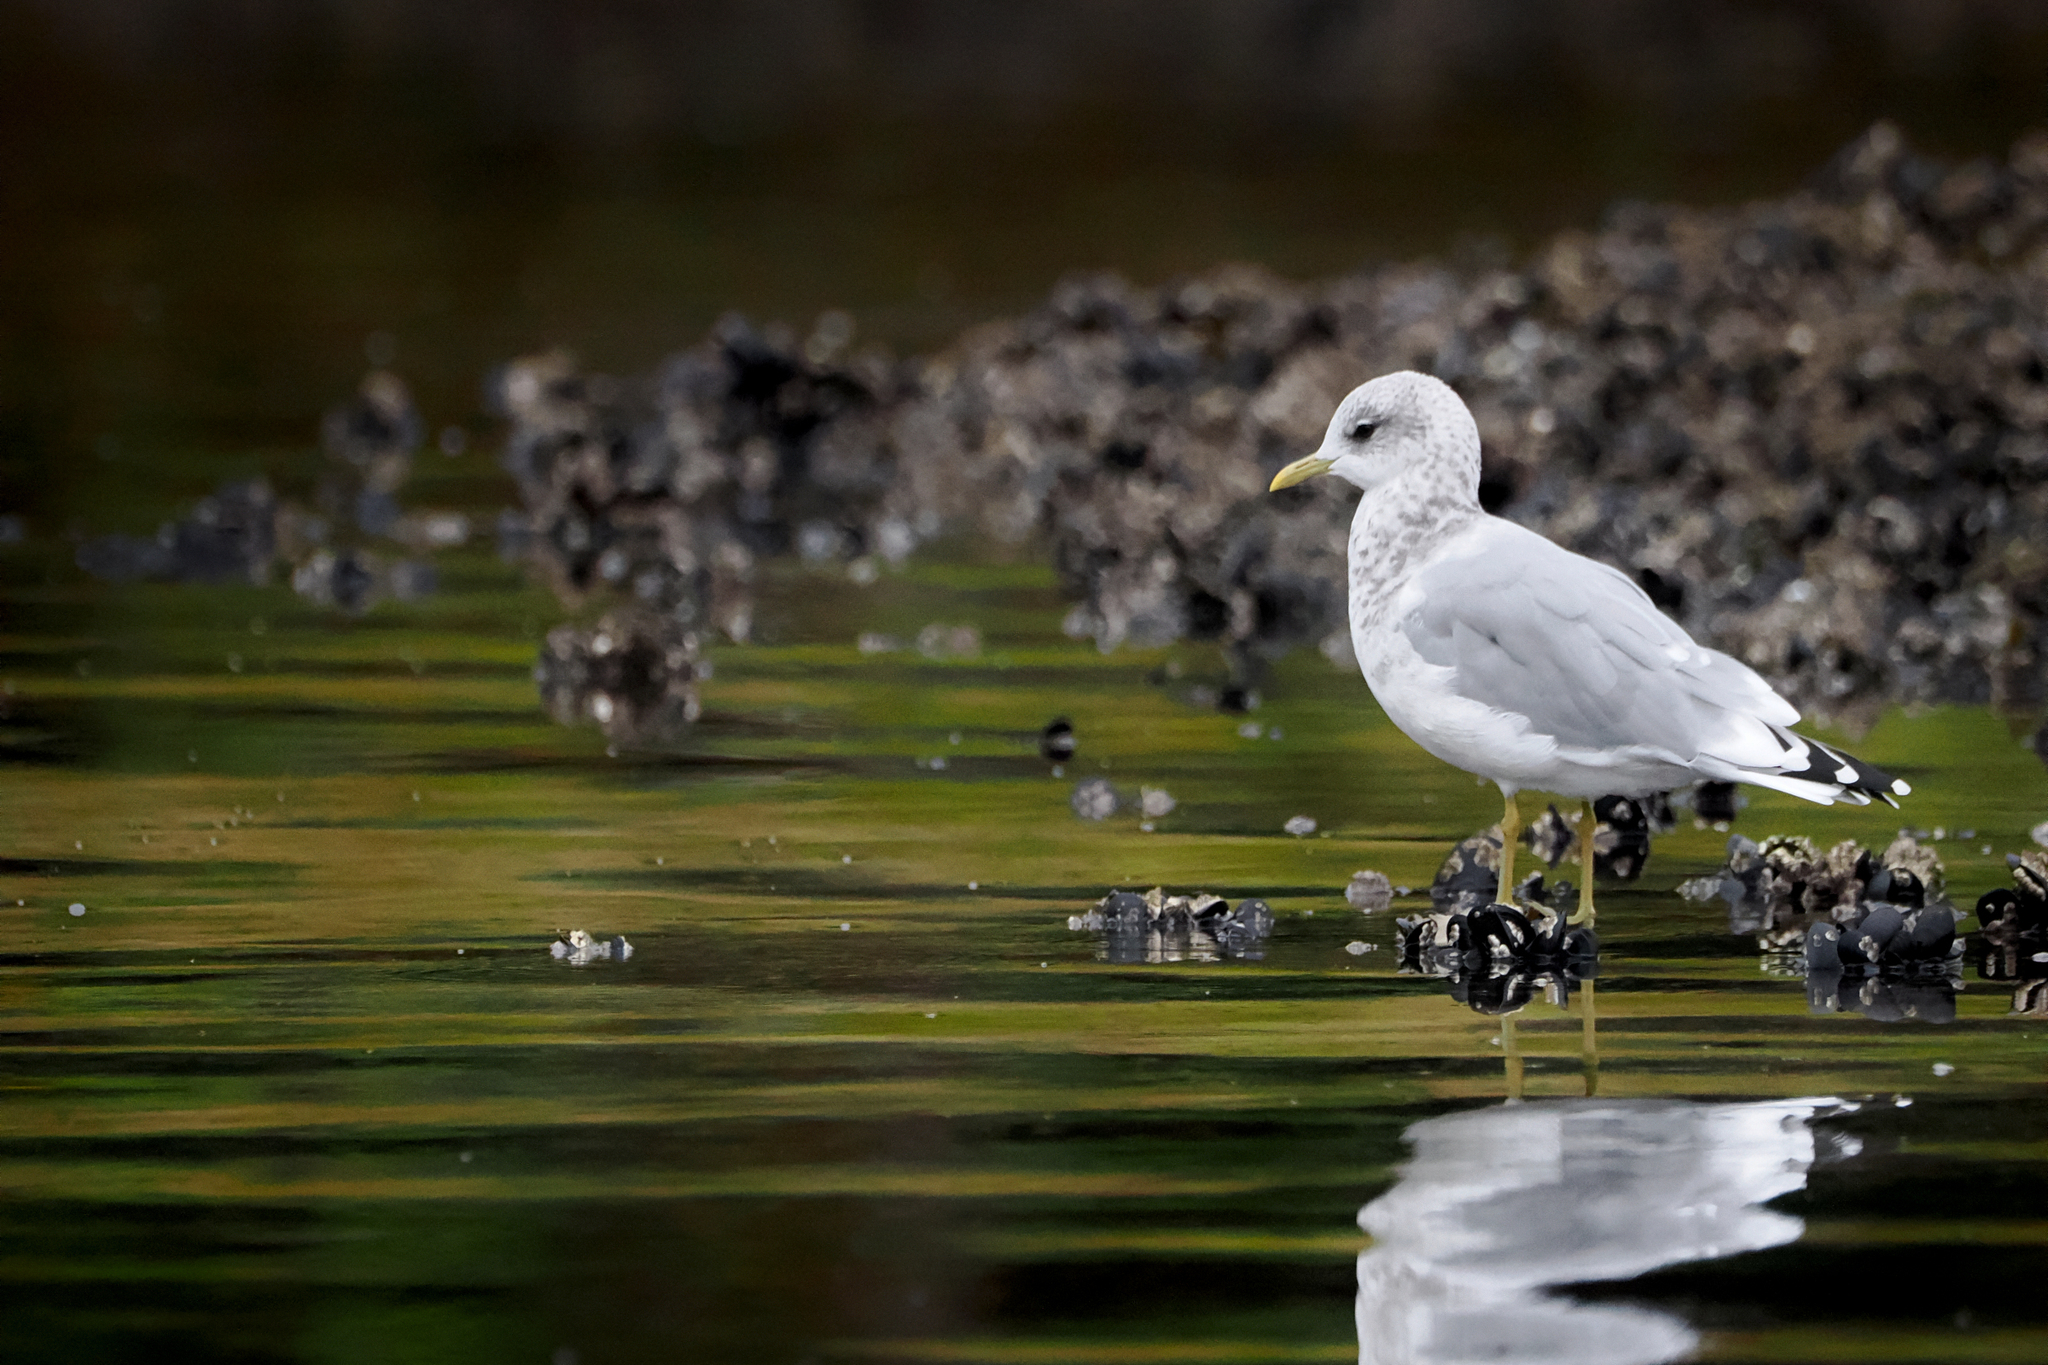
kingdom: Animalia
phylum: Chordata
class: Aves
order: Charadriiformes
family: Laridae
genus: Larus
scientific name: Larus brachyrhynchus
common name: Short-billed gull
